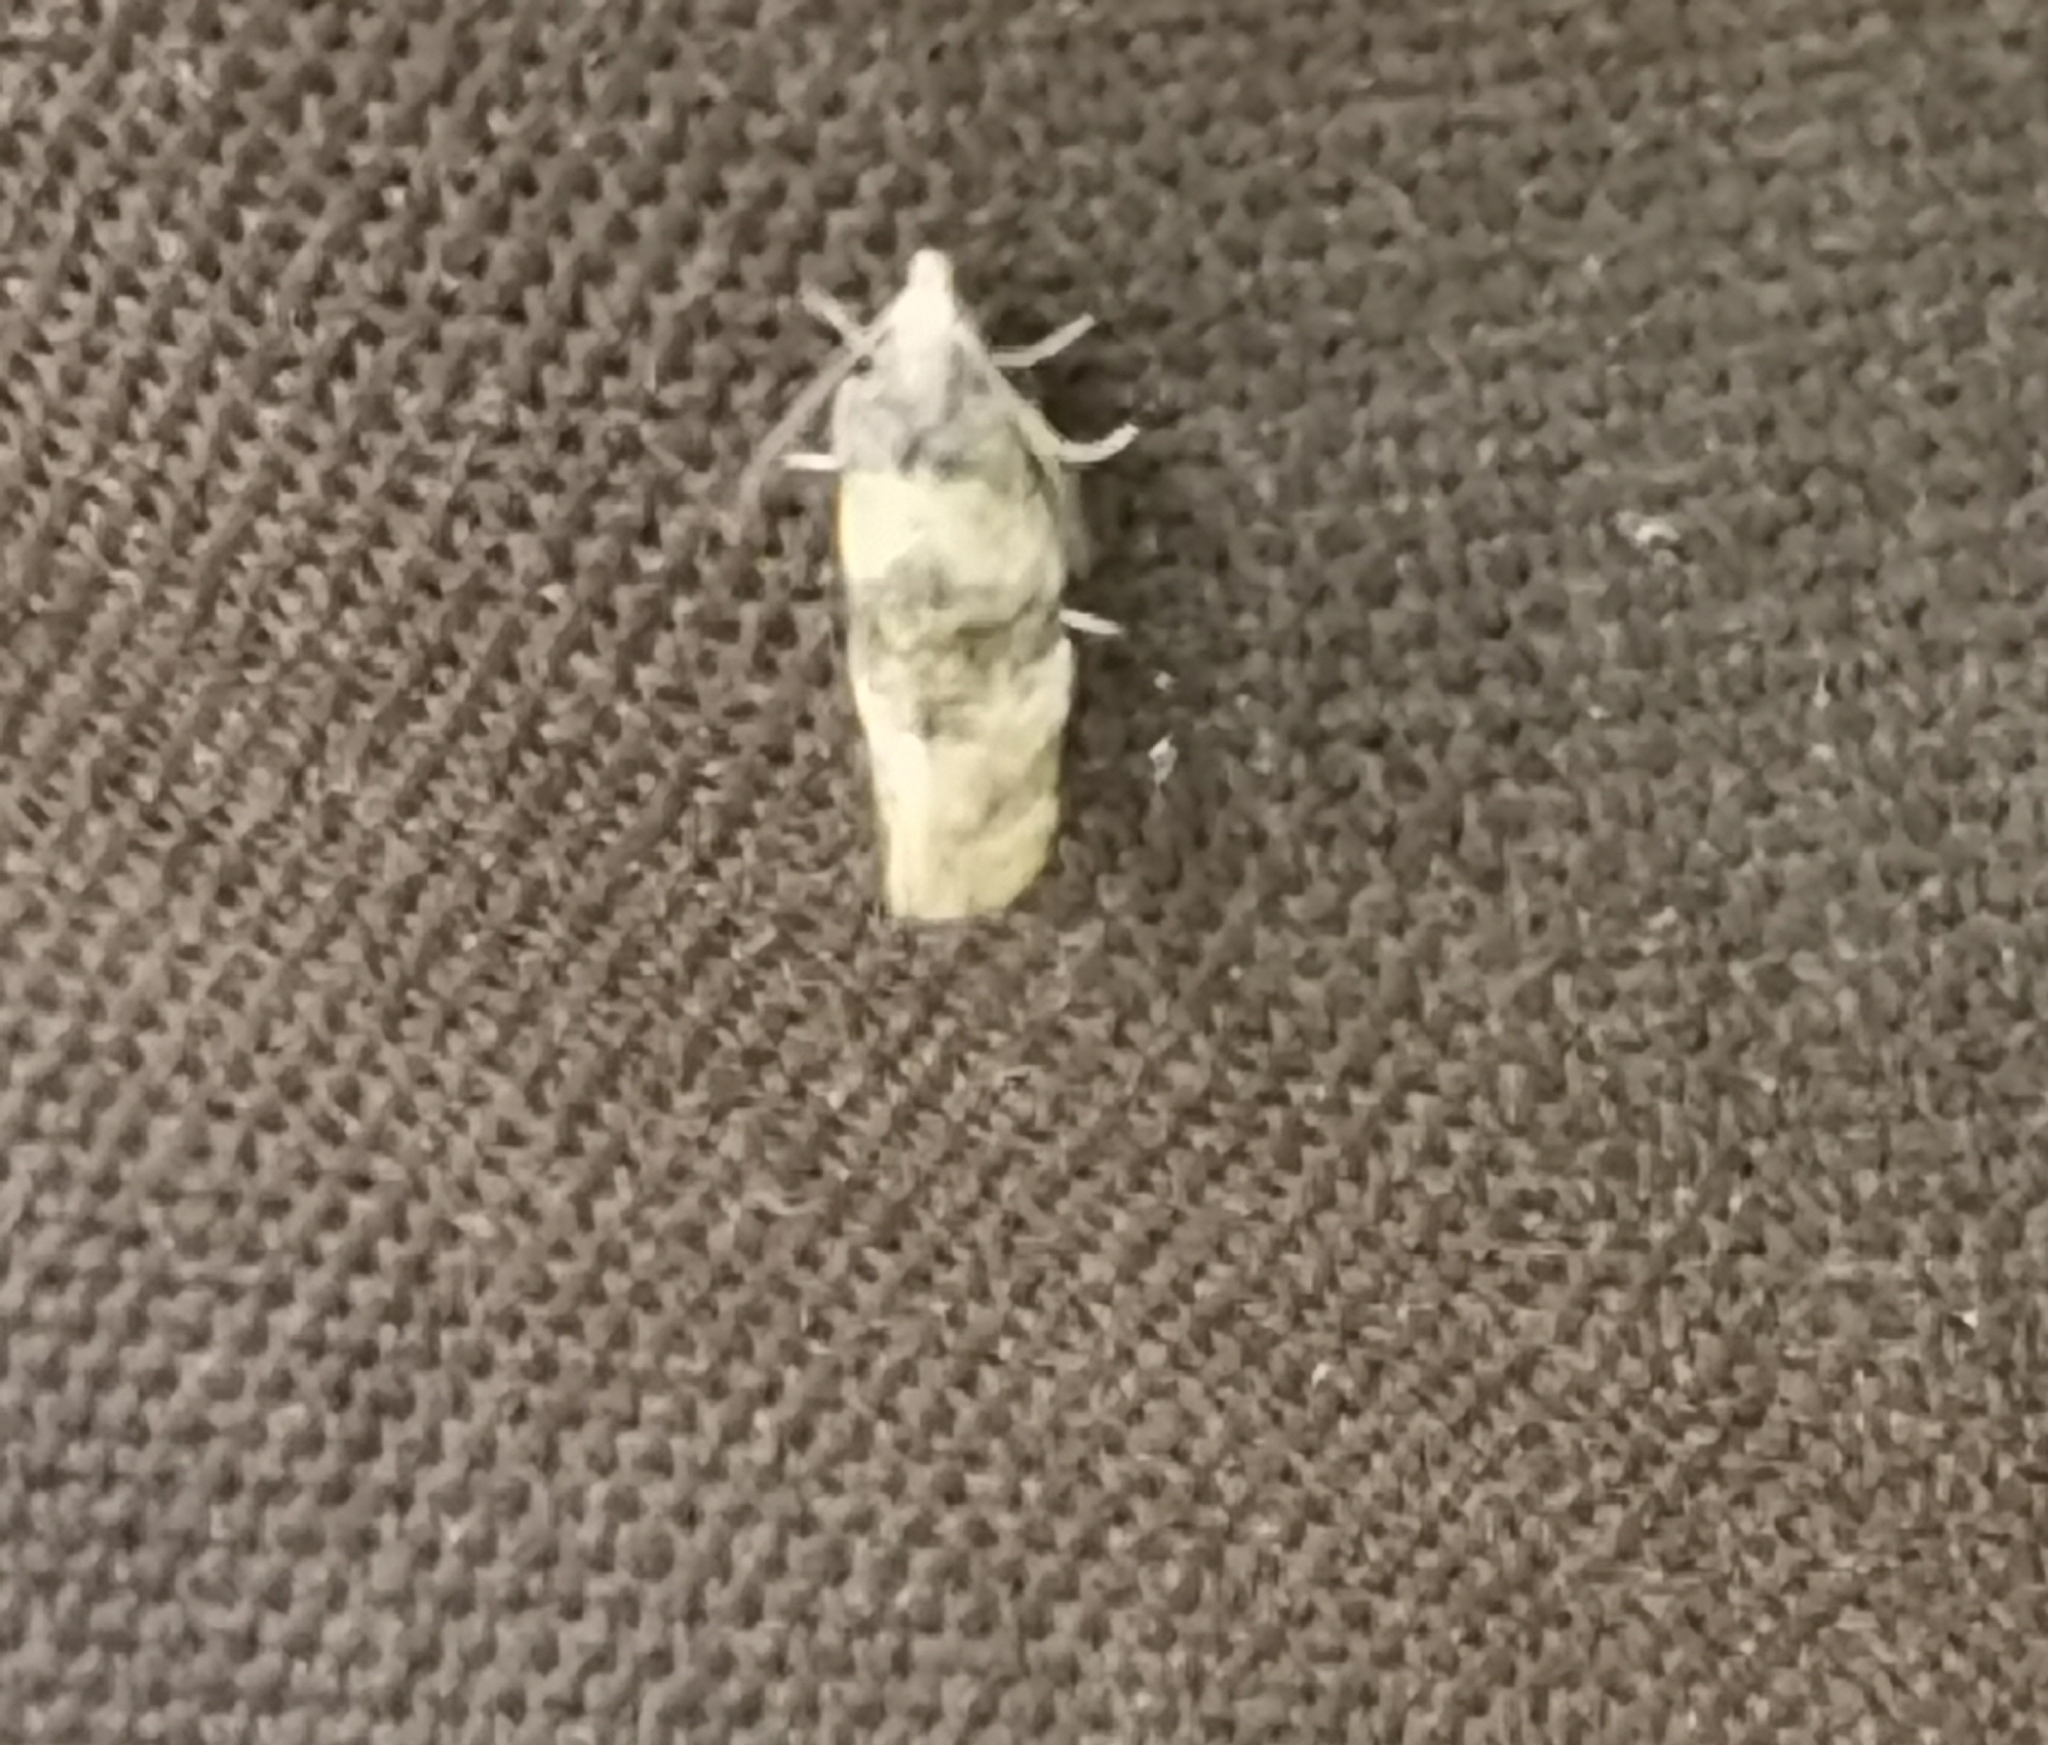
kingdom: Animalia
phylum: Arthropoda
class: Insecta
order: Lepidoptera
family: Tortricidae
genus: Thyraylia
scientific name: Thyraylia nana
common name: Birch conch
